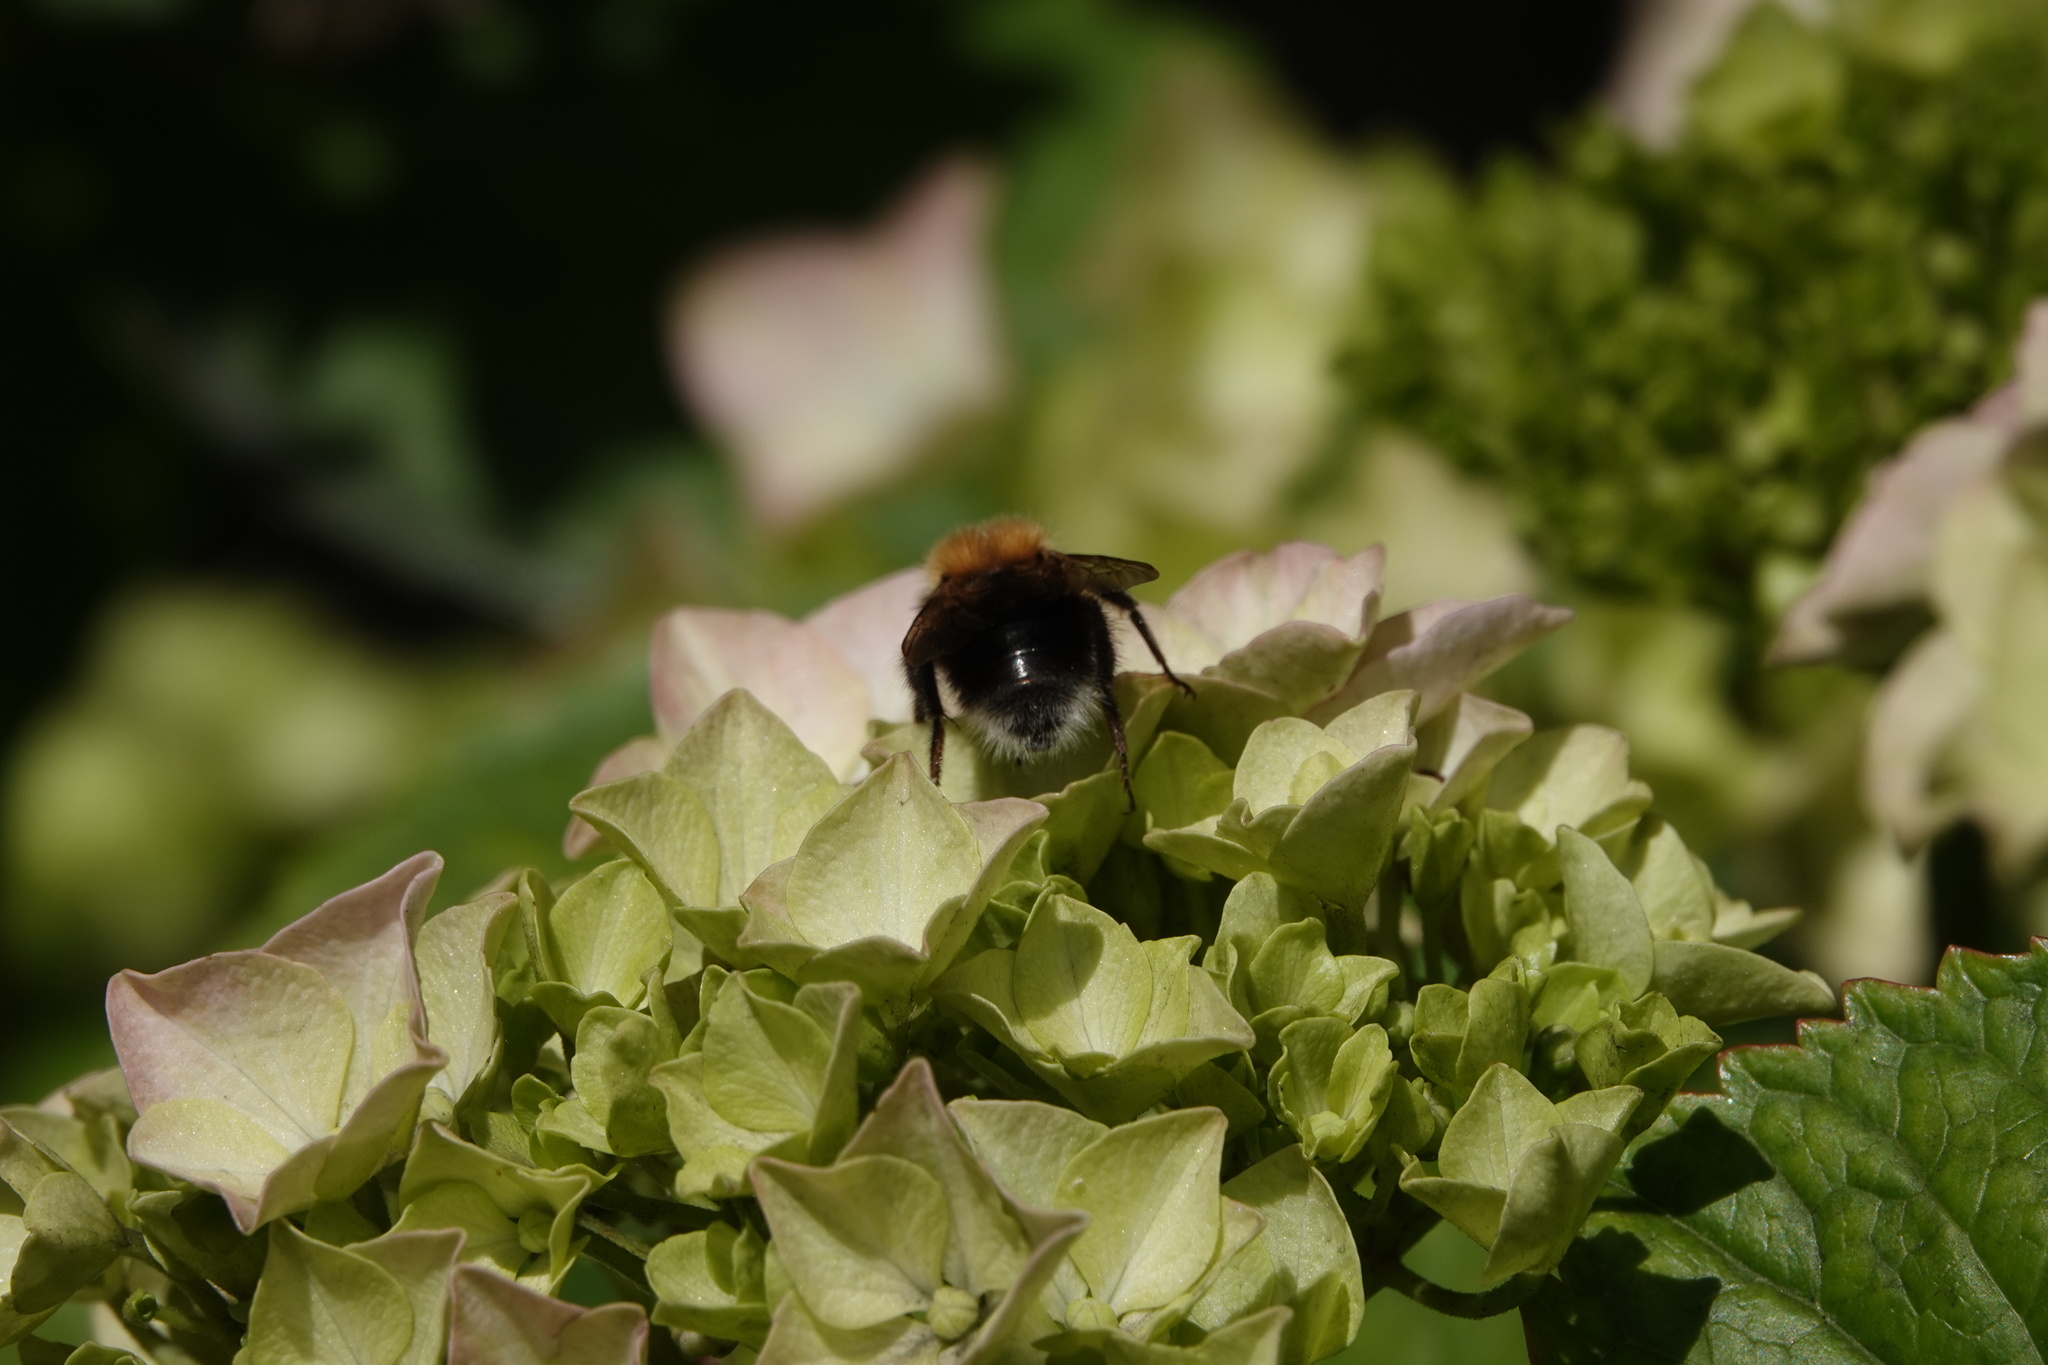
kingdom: Animalia
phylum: Arthropoda
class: Insecta
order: Hymenoptera
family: Apidae
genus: Bombus
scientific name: Bombus hypnorum
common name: New garden bumblebee
